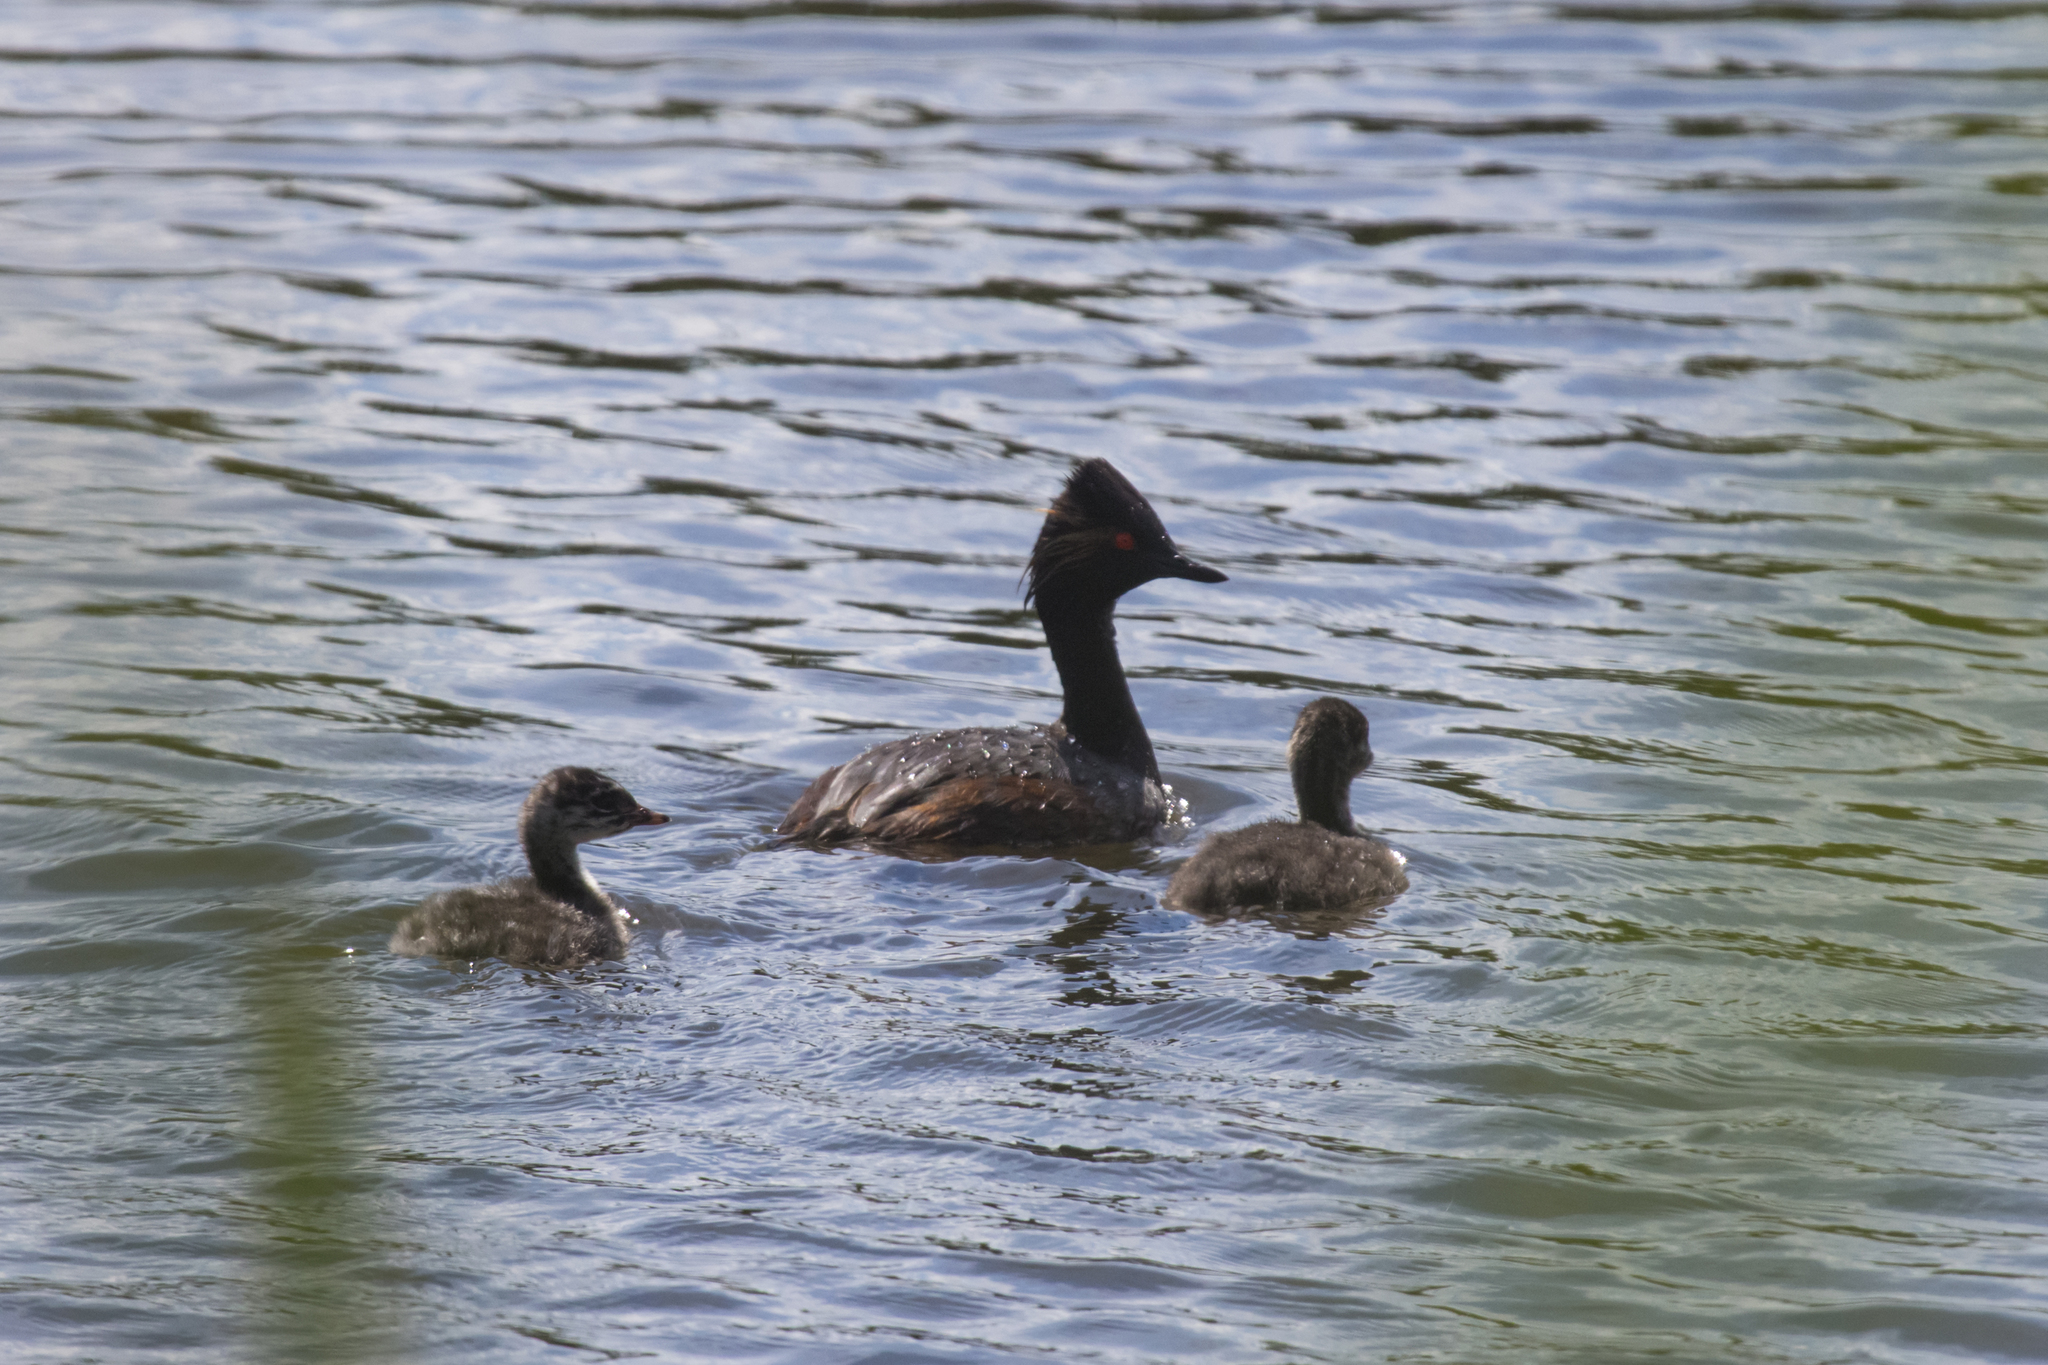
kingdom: Animalia
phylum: Chordata
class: Aves
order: Podicipediformes
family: Podicipedidae
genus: Podiceps
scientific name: Podiceps nigricollis
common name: Black-necked grebe
